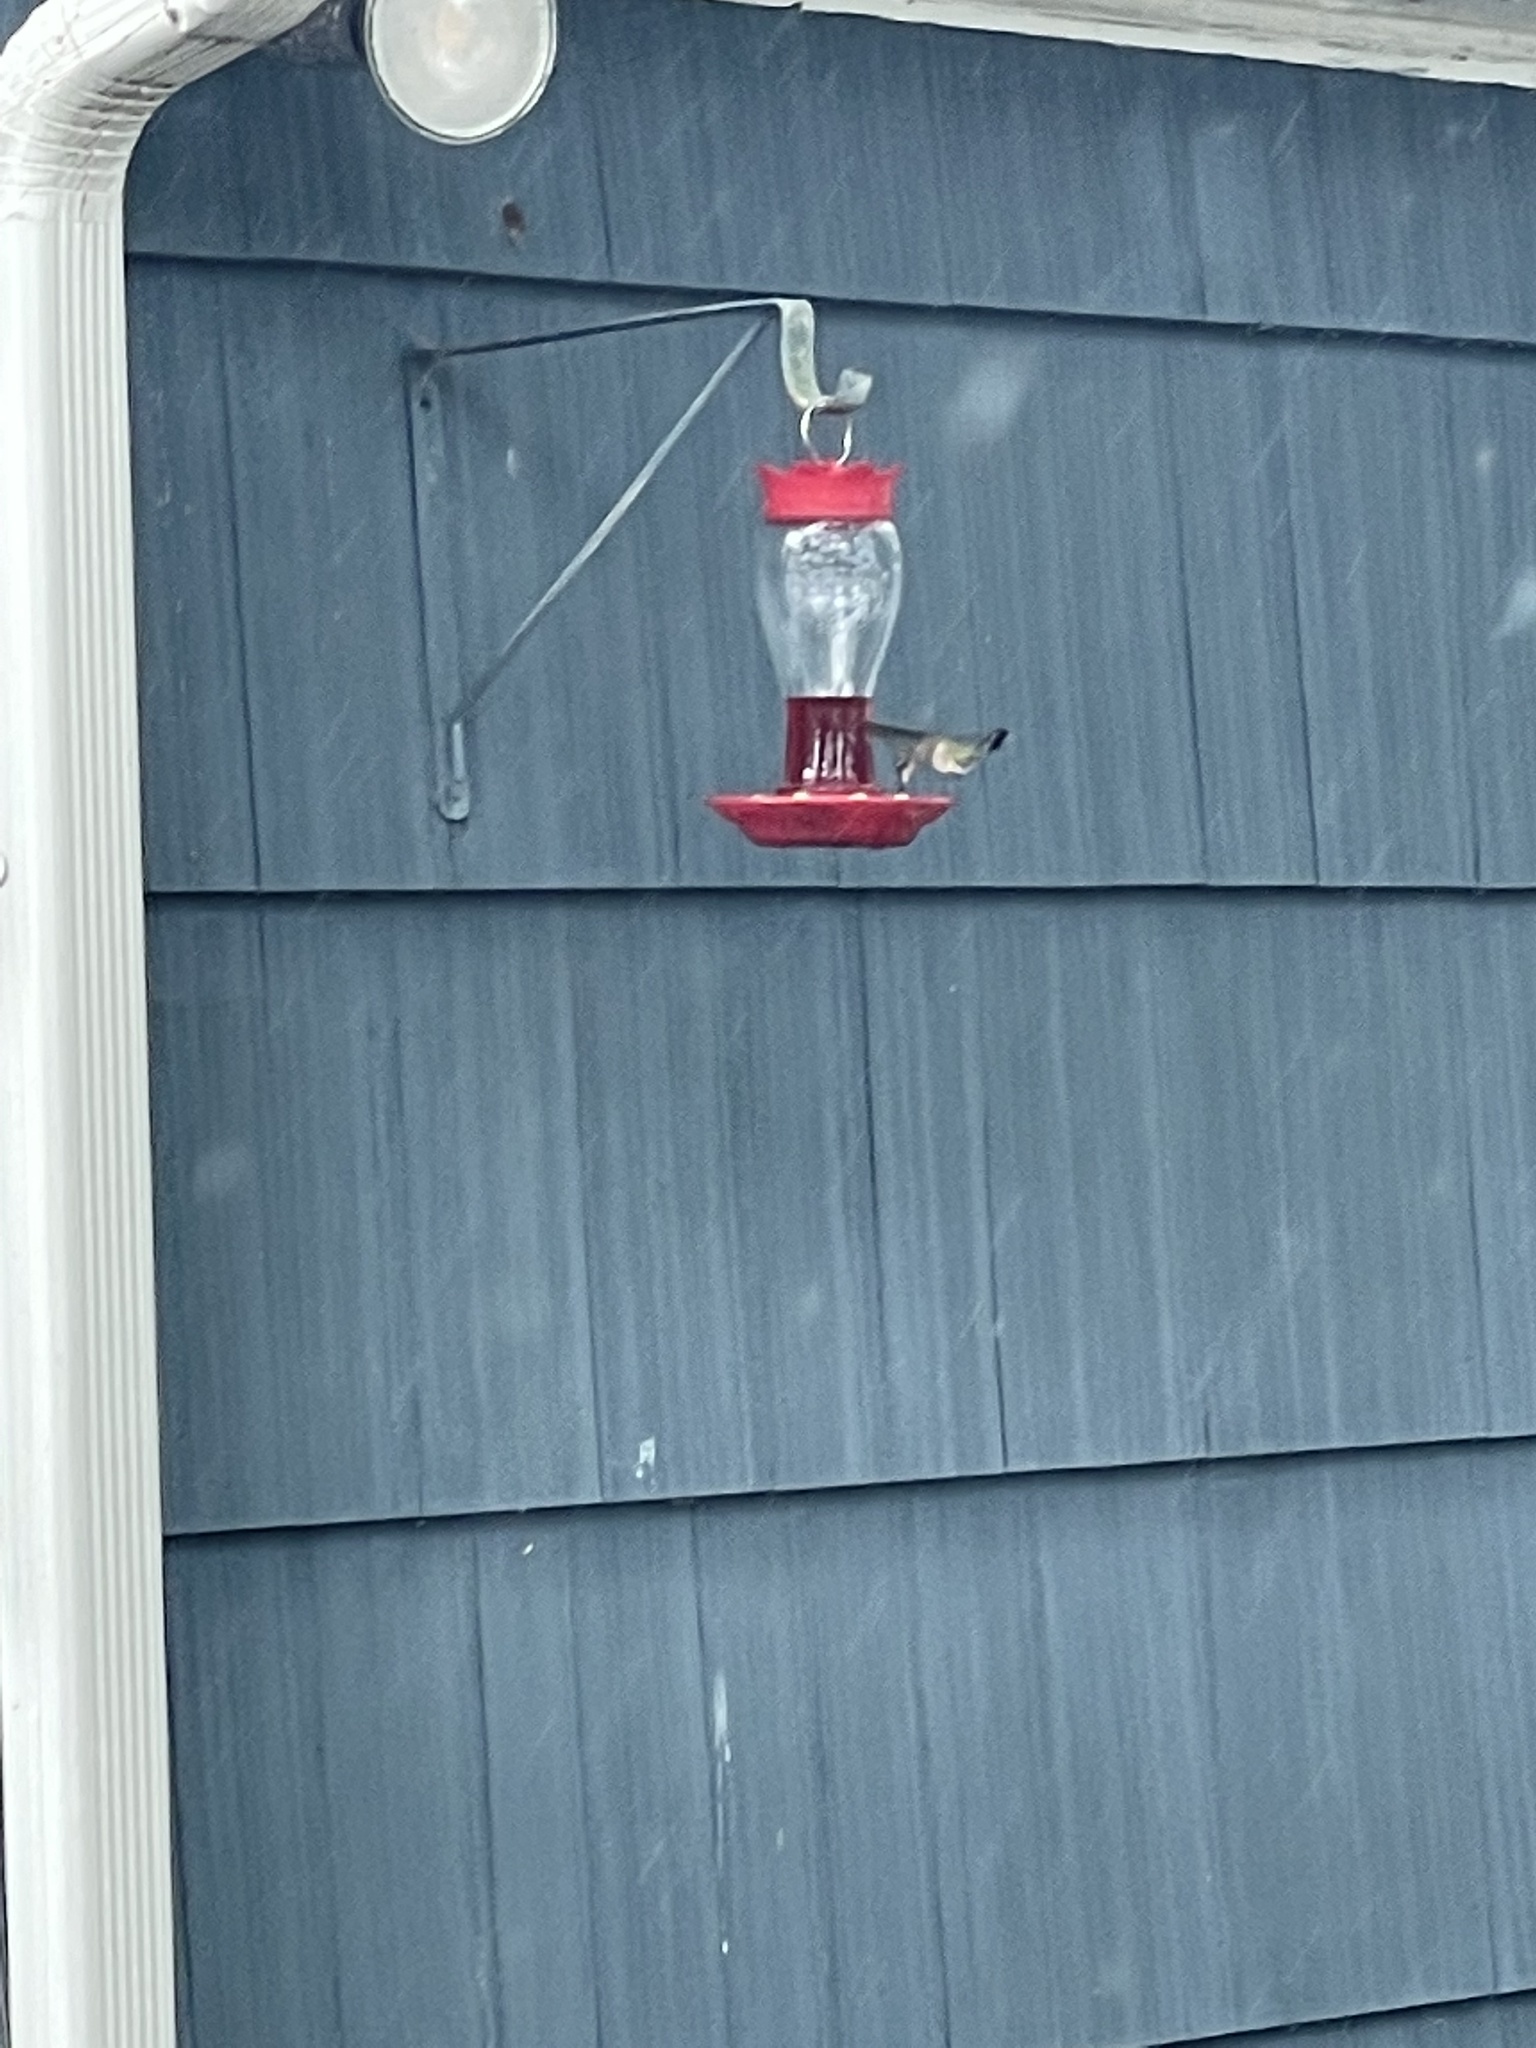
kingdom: Animalia
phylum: Chordata
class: Aves
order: Apodiformes
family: Trochilidae
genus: Archilochus
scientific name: Archilochus colubris
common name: Ruby-throated hummingbird
